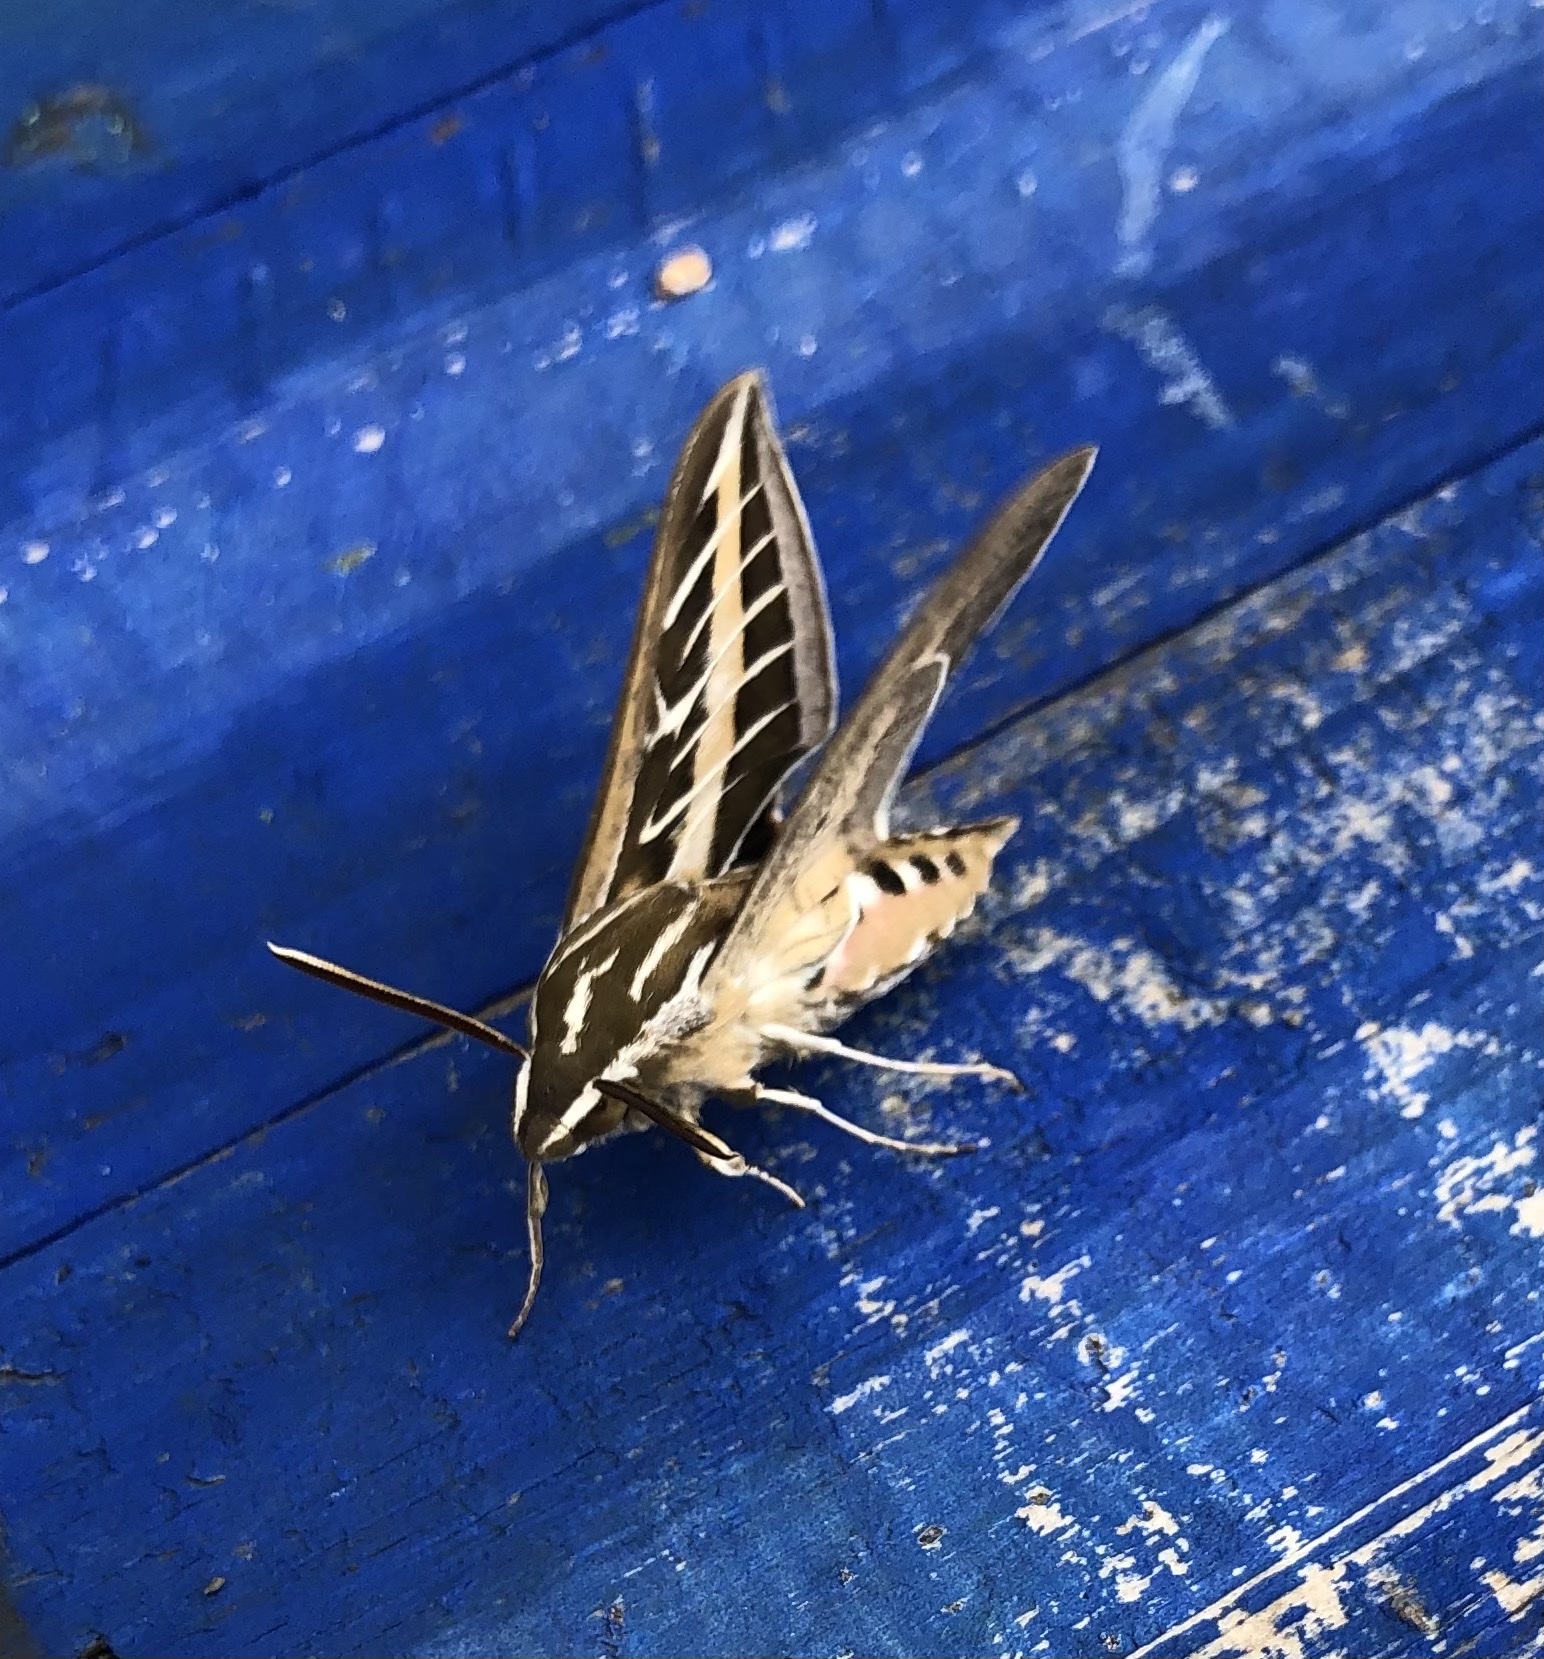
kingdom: Animalia
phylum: Arthropoda
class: Insecta
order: Lepidoptera
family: Sphingidae
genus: Hyles
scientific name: Hyles lineata
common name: White-lined sphinx
